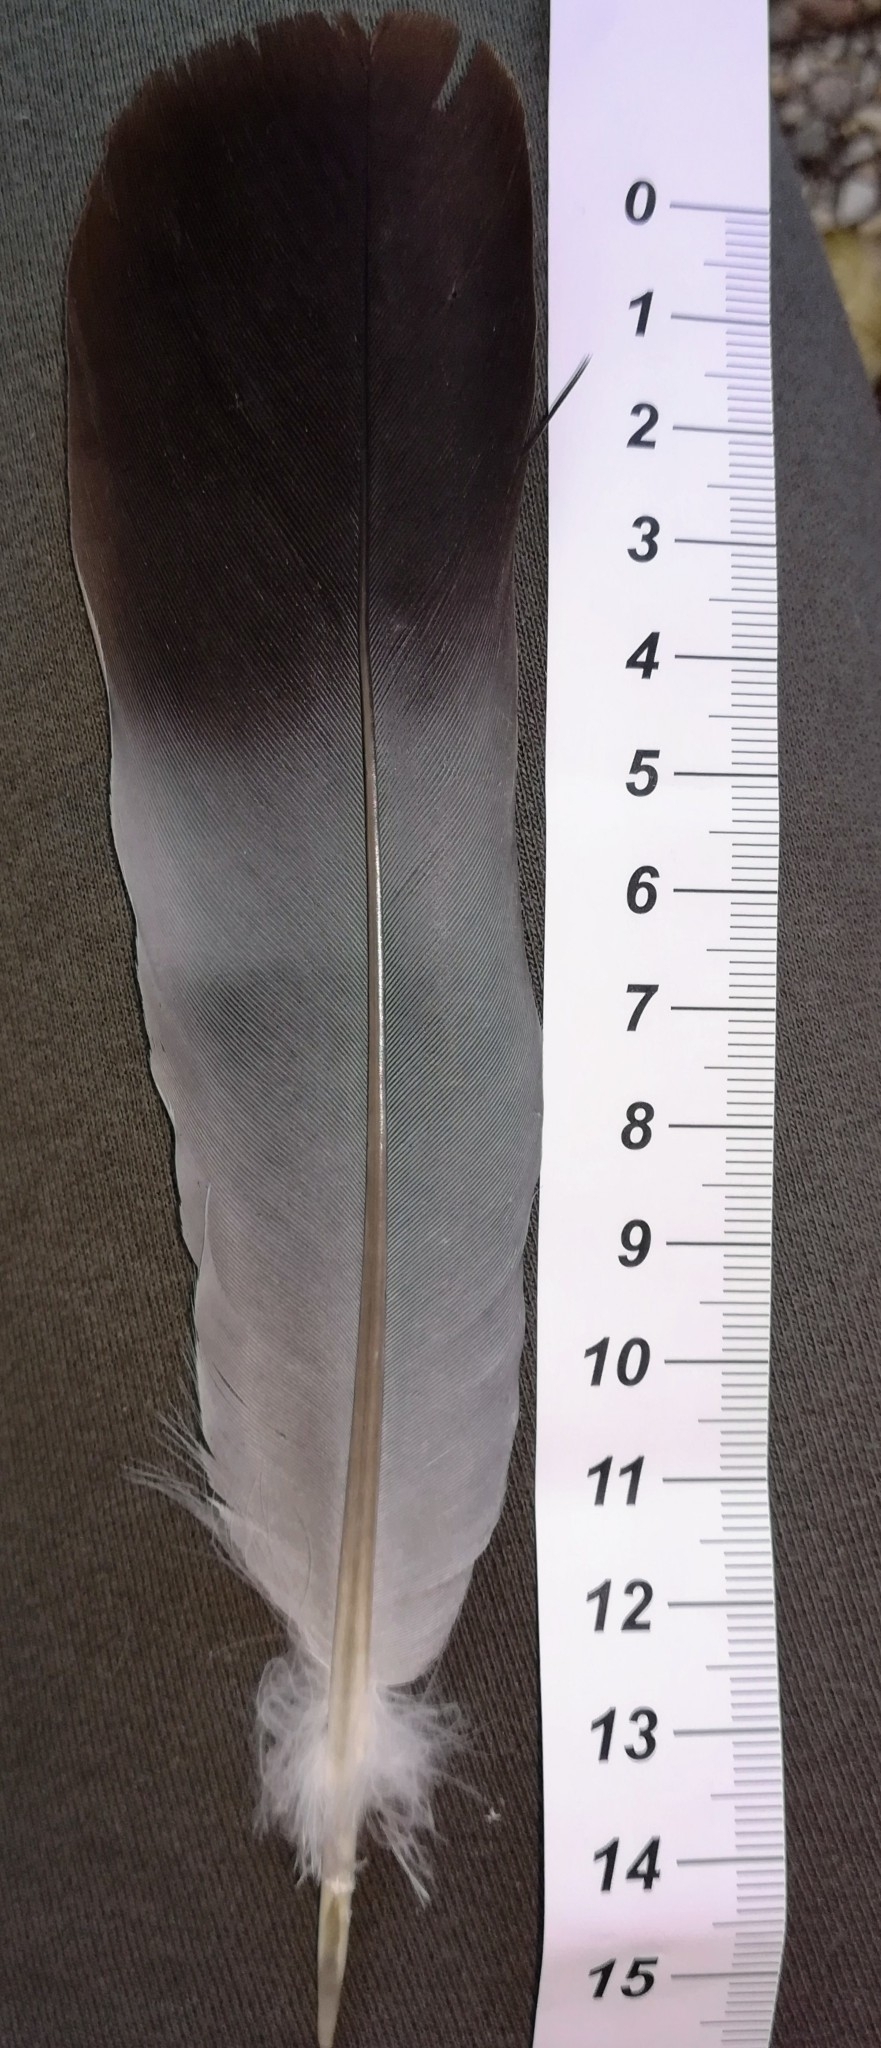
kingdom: Animalia
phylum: Chordata
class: Aves
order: Columbiformes
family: Columbidae
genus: Columba
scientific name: Columba palumbus
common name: Common wood pigeon
